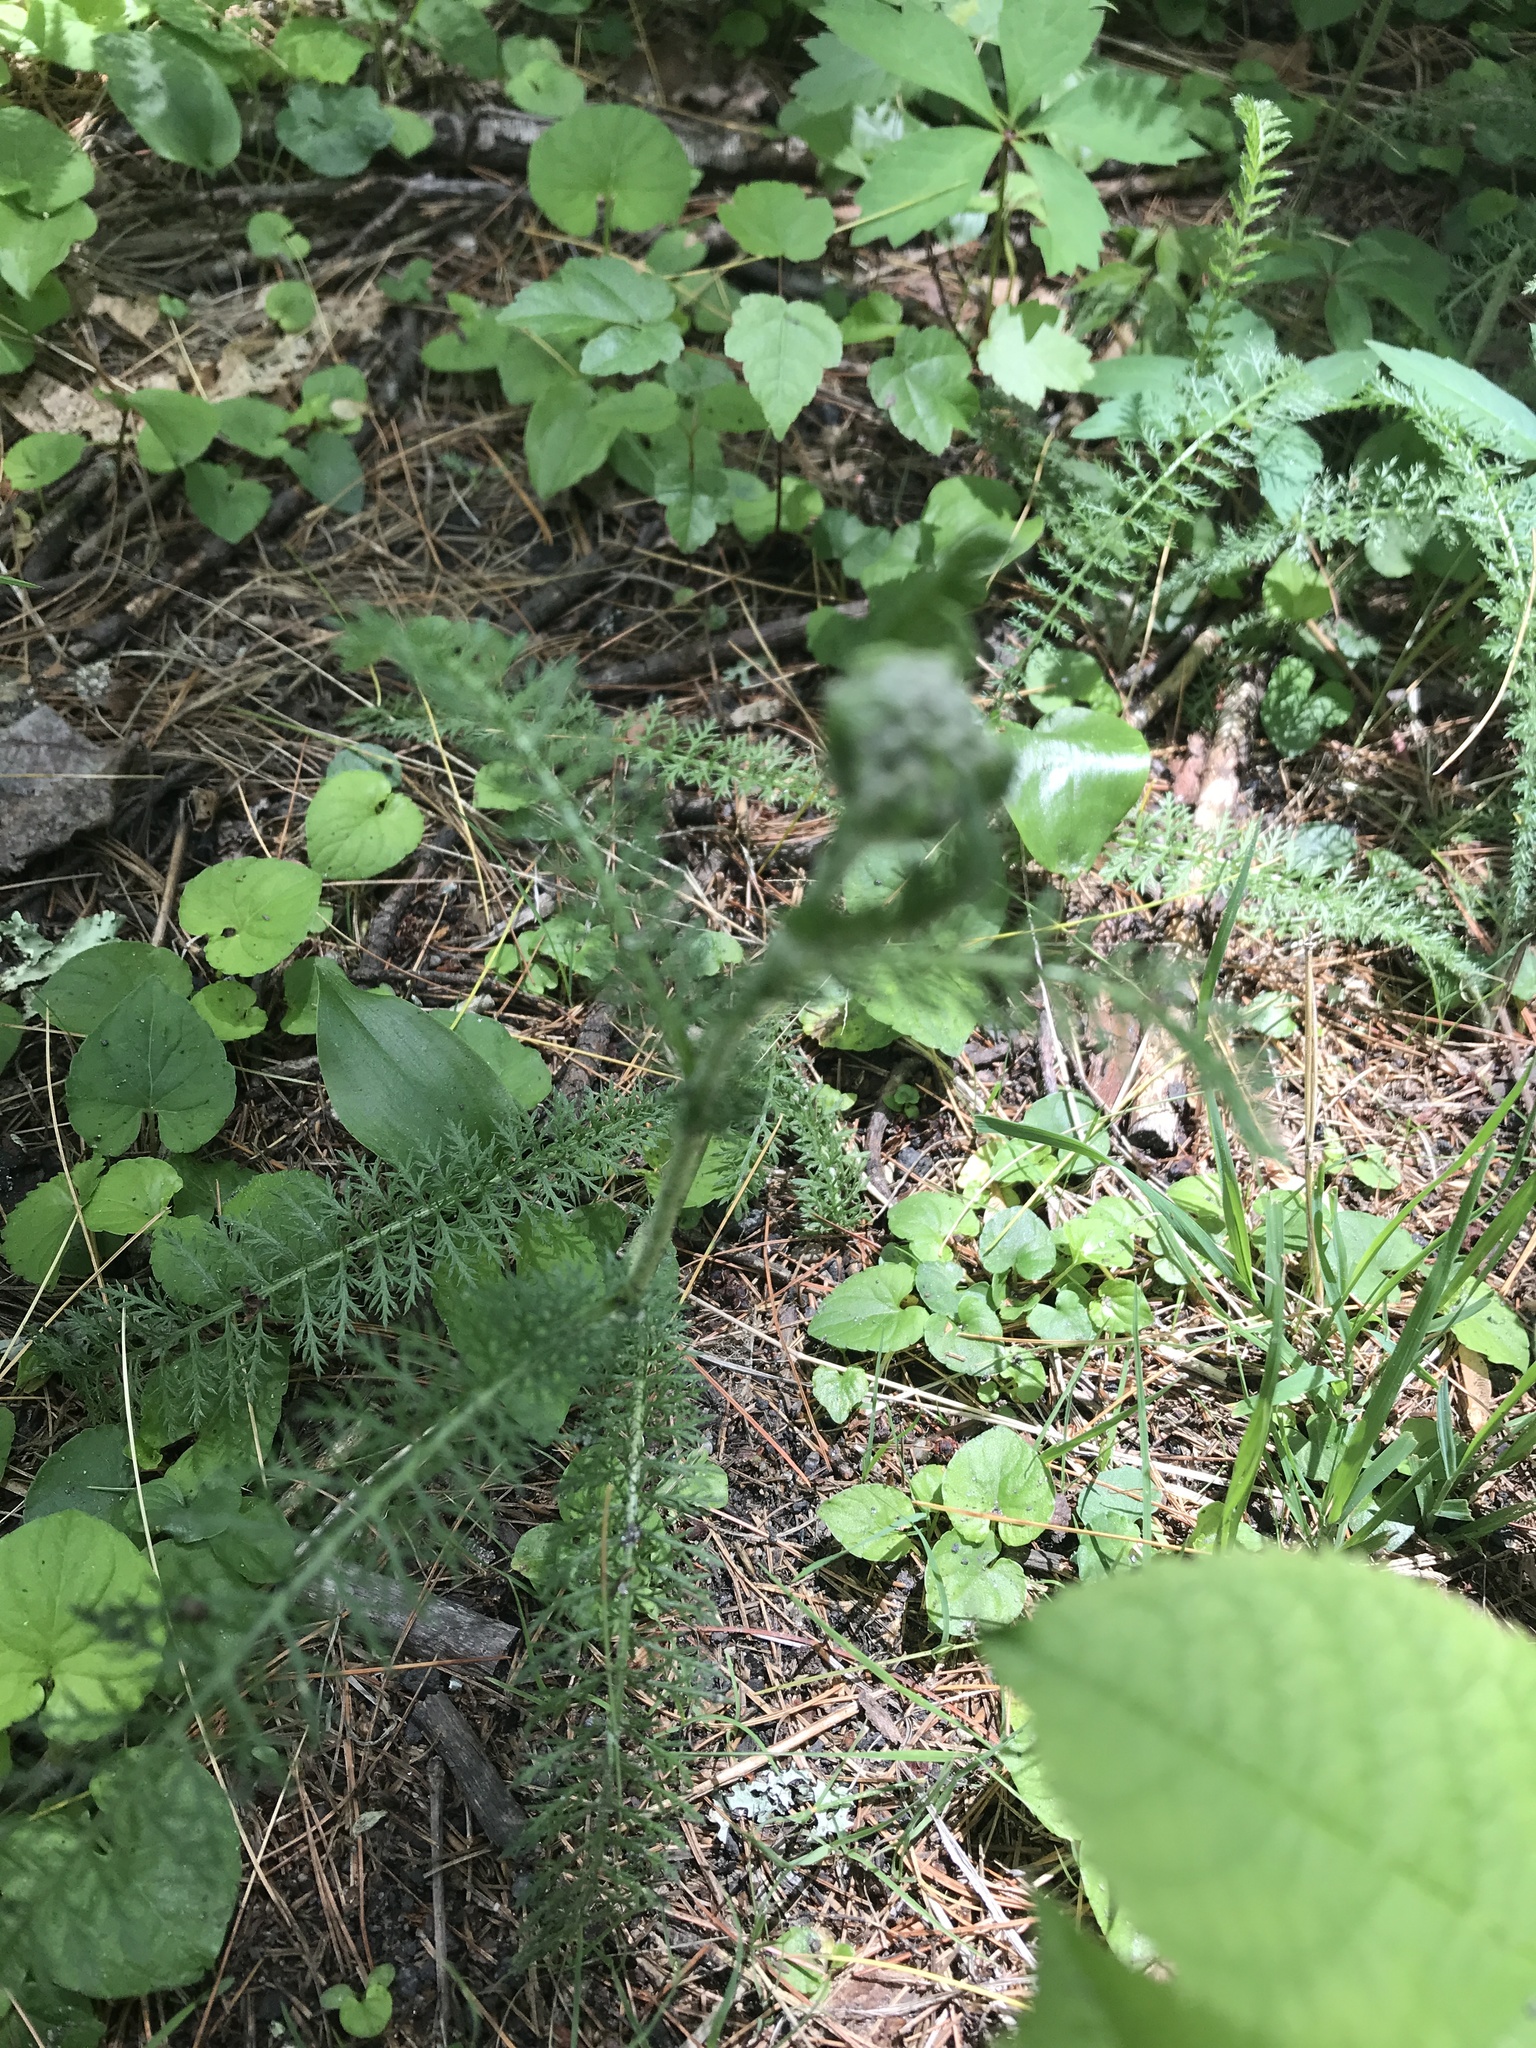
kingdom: Plantae
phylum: Tracheophyta
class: Magnoliopsida
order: Asterales
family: Asteraceae
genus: Achillea
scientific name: Achillea millefolium
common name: Yarrow
